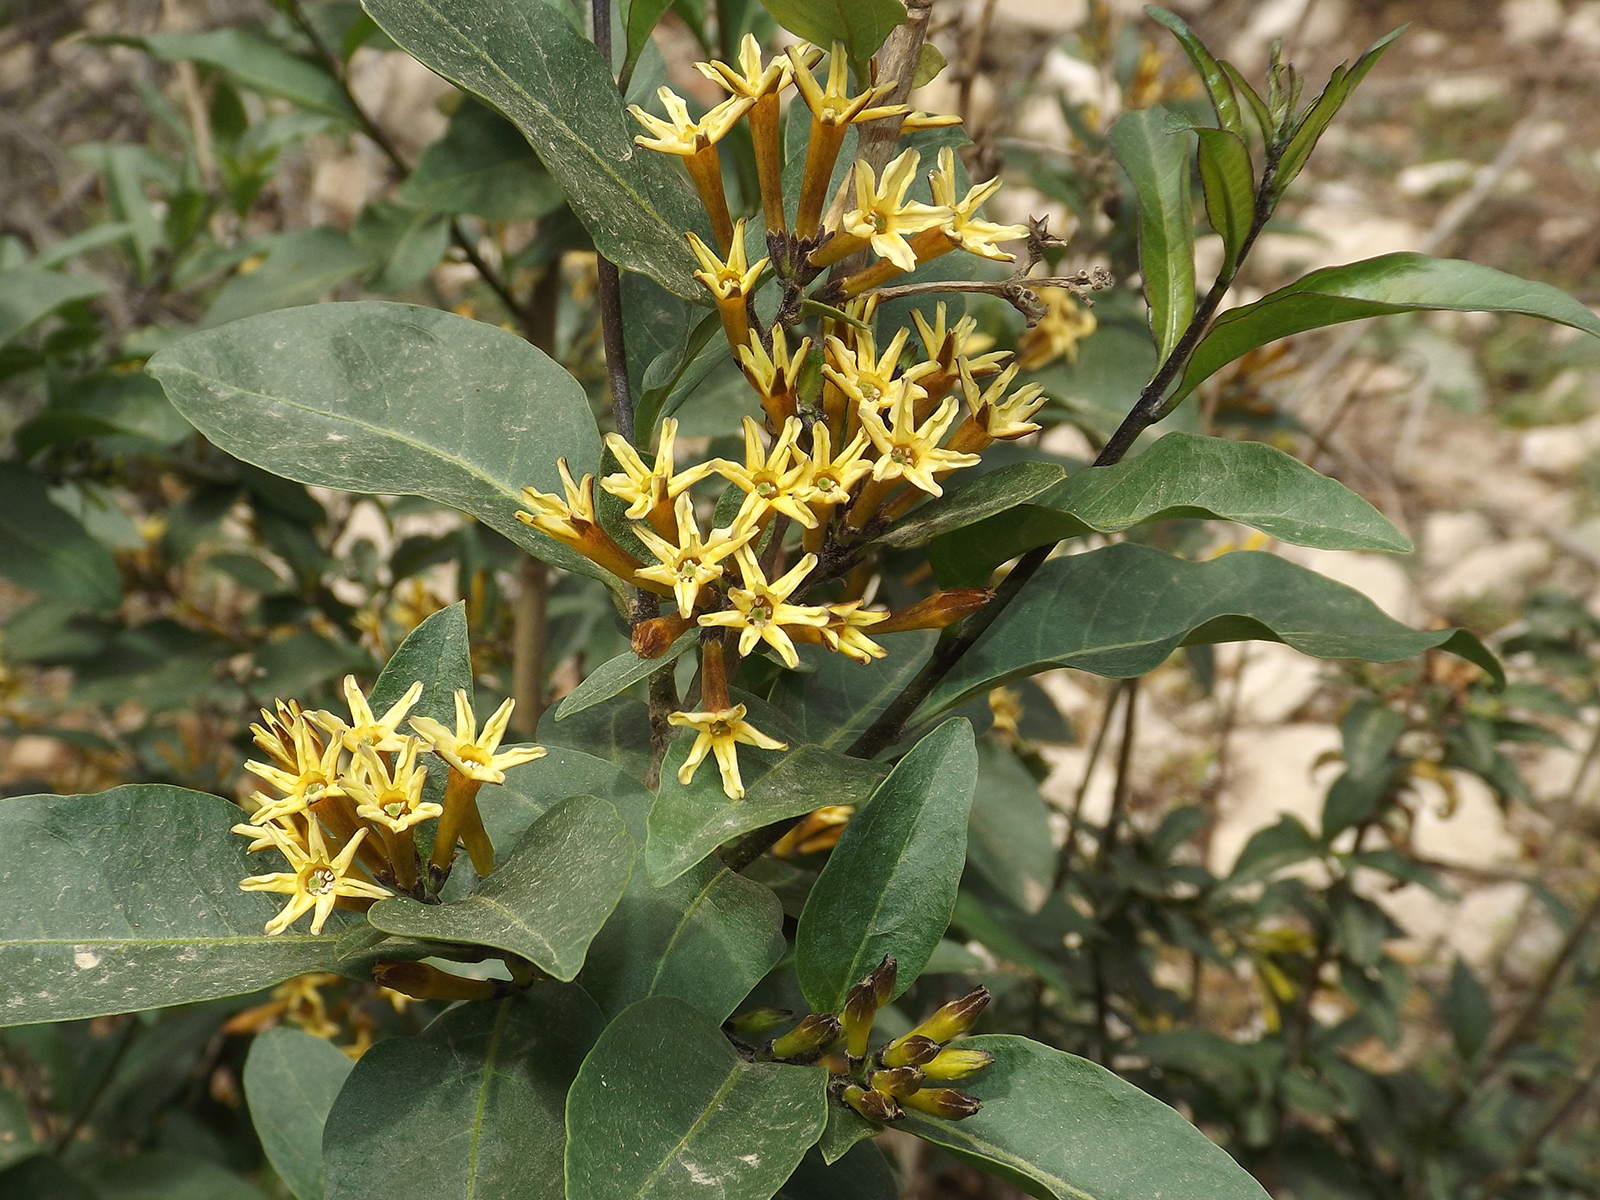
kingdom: Plantae
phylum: Tracheophyta
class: Magnoliopsida
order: Solanales
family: Solanaceae
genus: Cestrum
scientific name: Cestrum parqui
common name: Chilean cestrum
